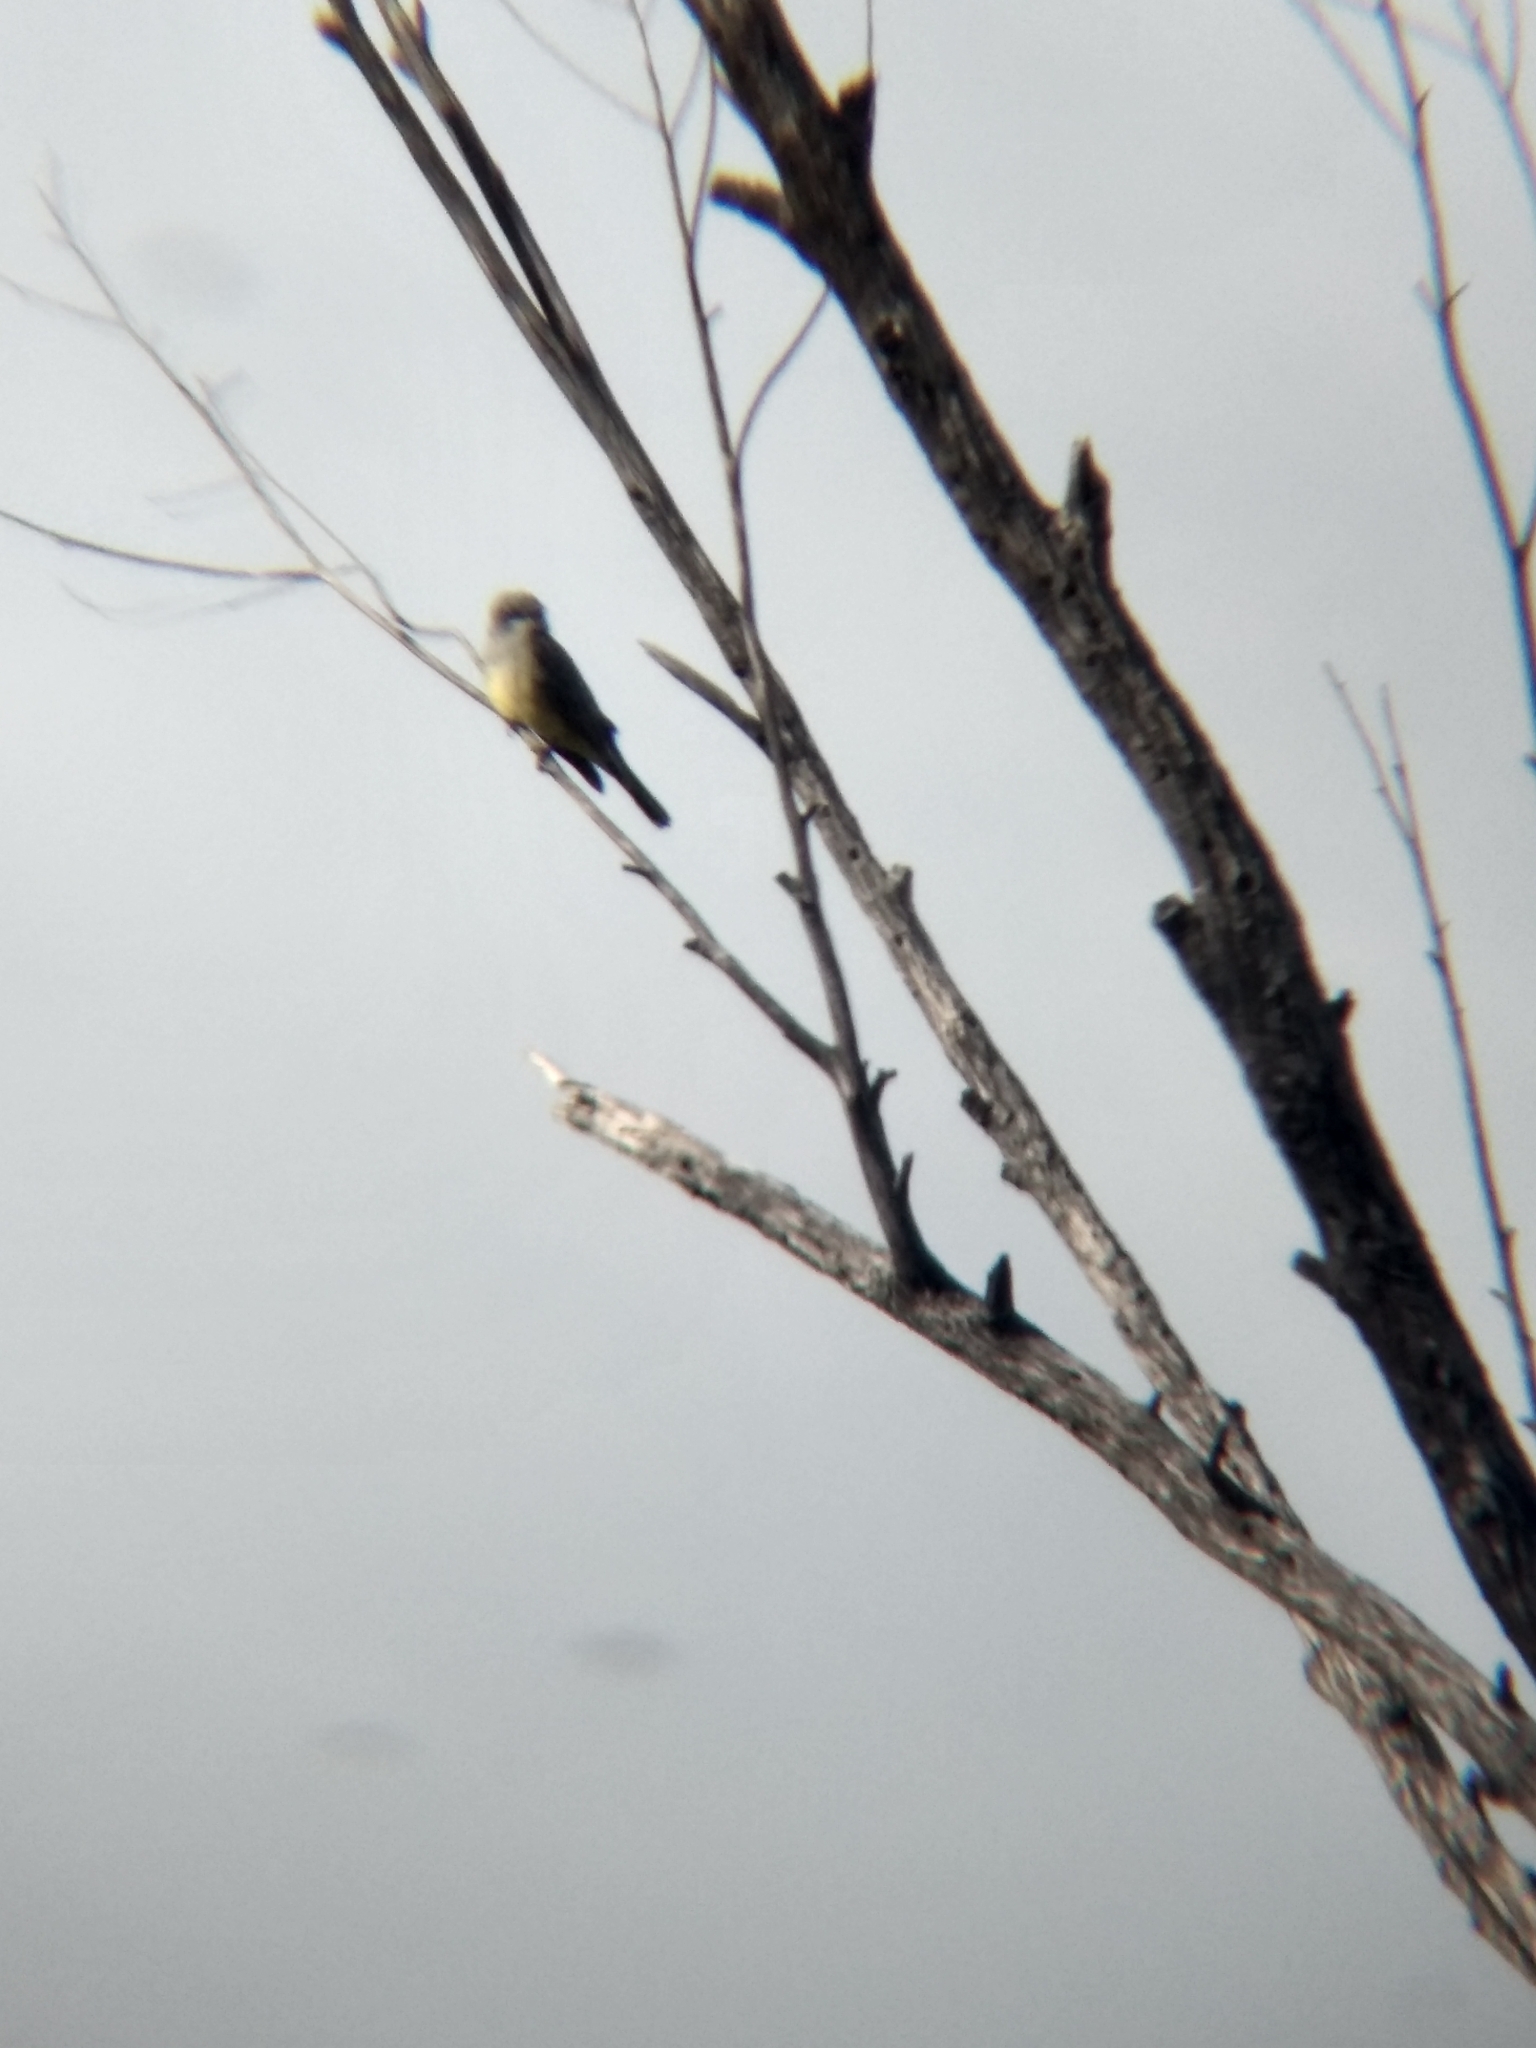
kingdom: Animalia
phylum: Chordata
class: Aves
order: Passeriformes
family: Tyrannidae
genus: Tyrannus
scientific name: Tyrannus vociferans
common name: Cassin's kingbird
